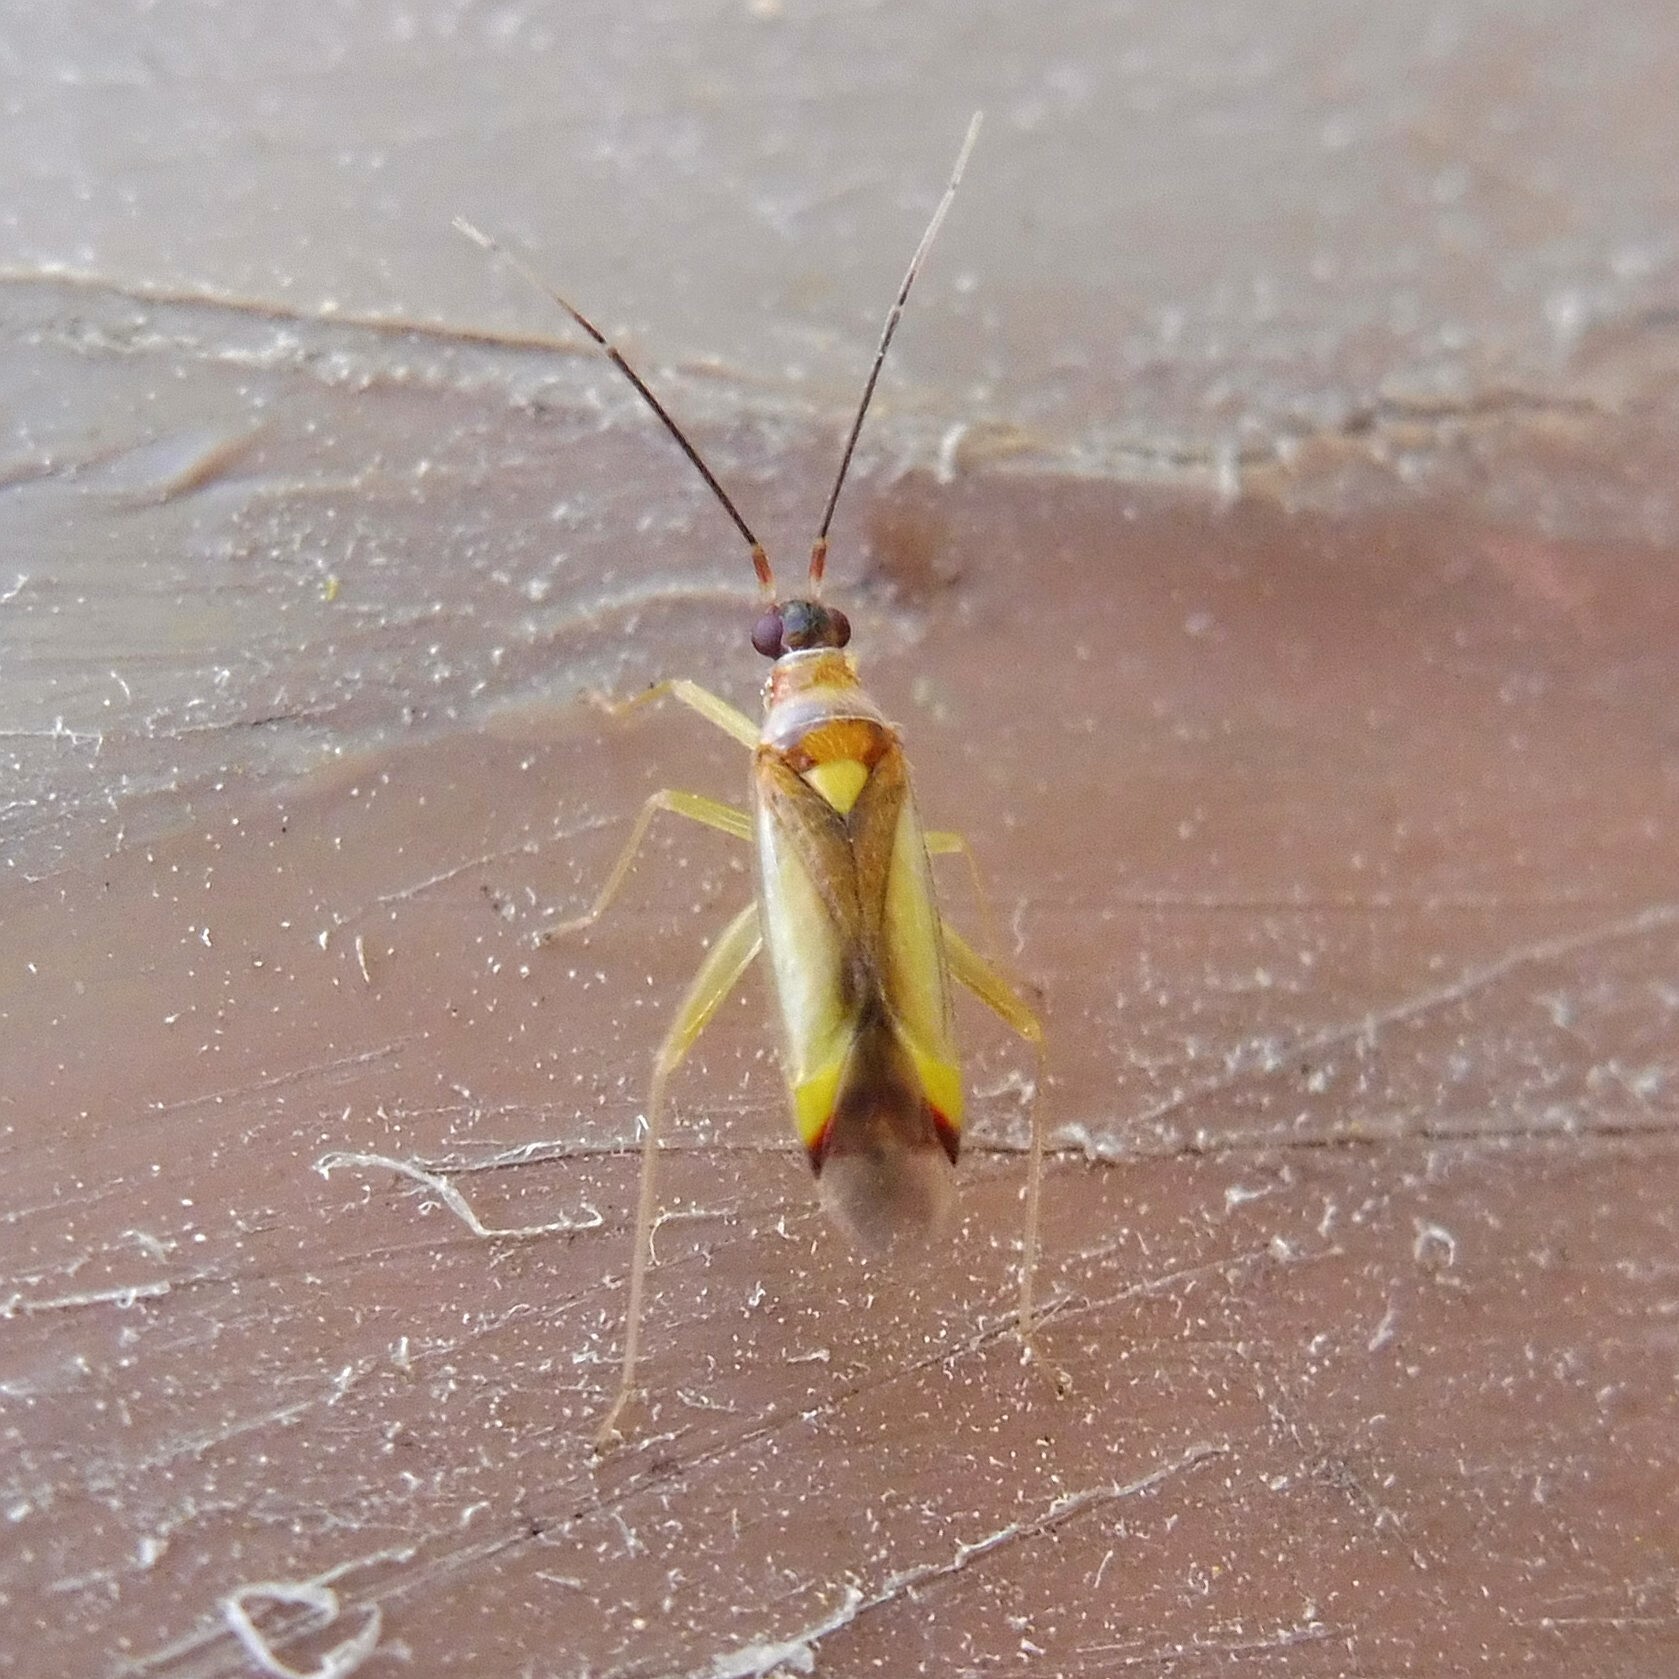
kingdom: Animalia
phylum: Arthropoda
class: Insecta
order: Hemiptera
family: Miridae
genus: Campyloneura
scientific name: Campyloneura virgula
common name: Predatory bug
